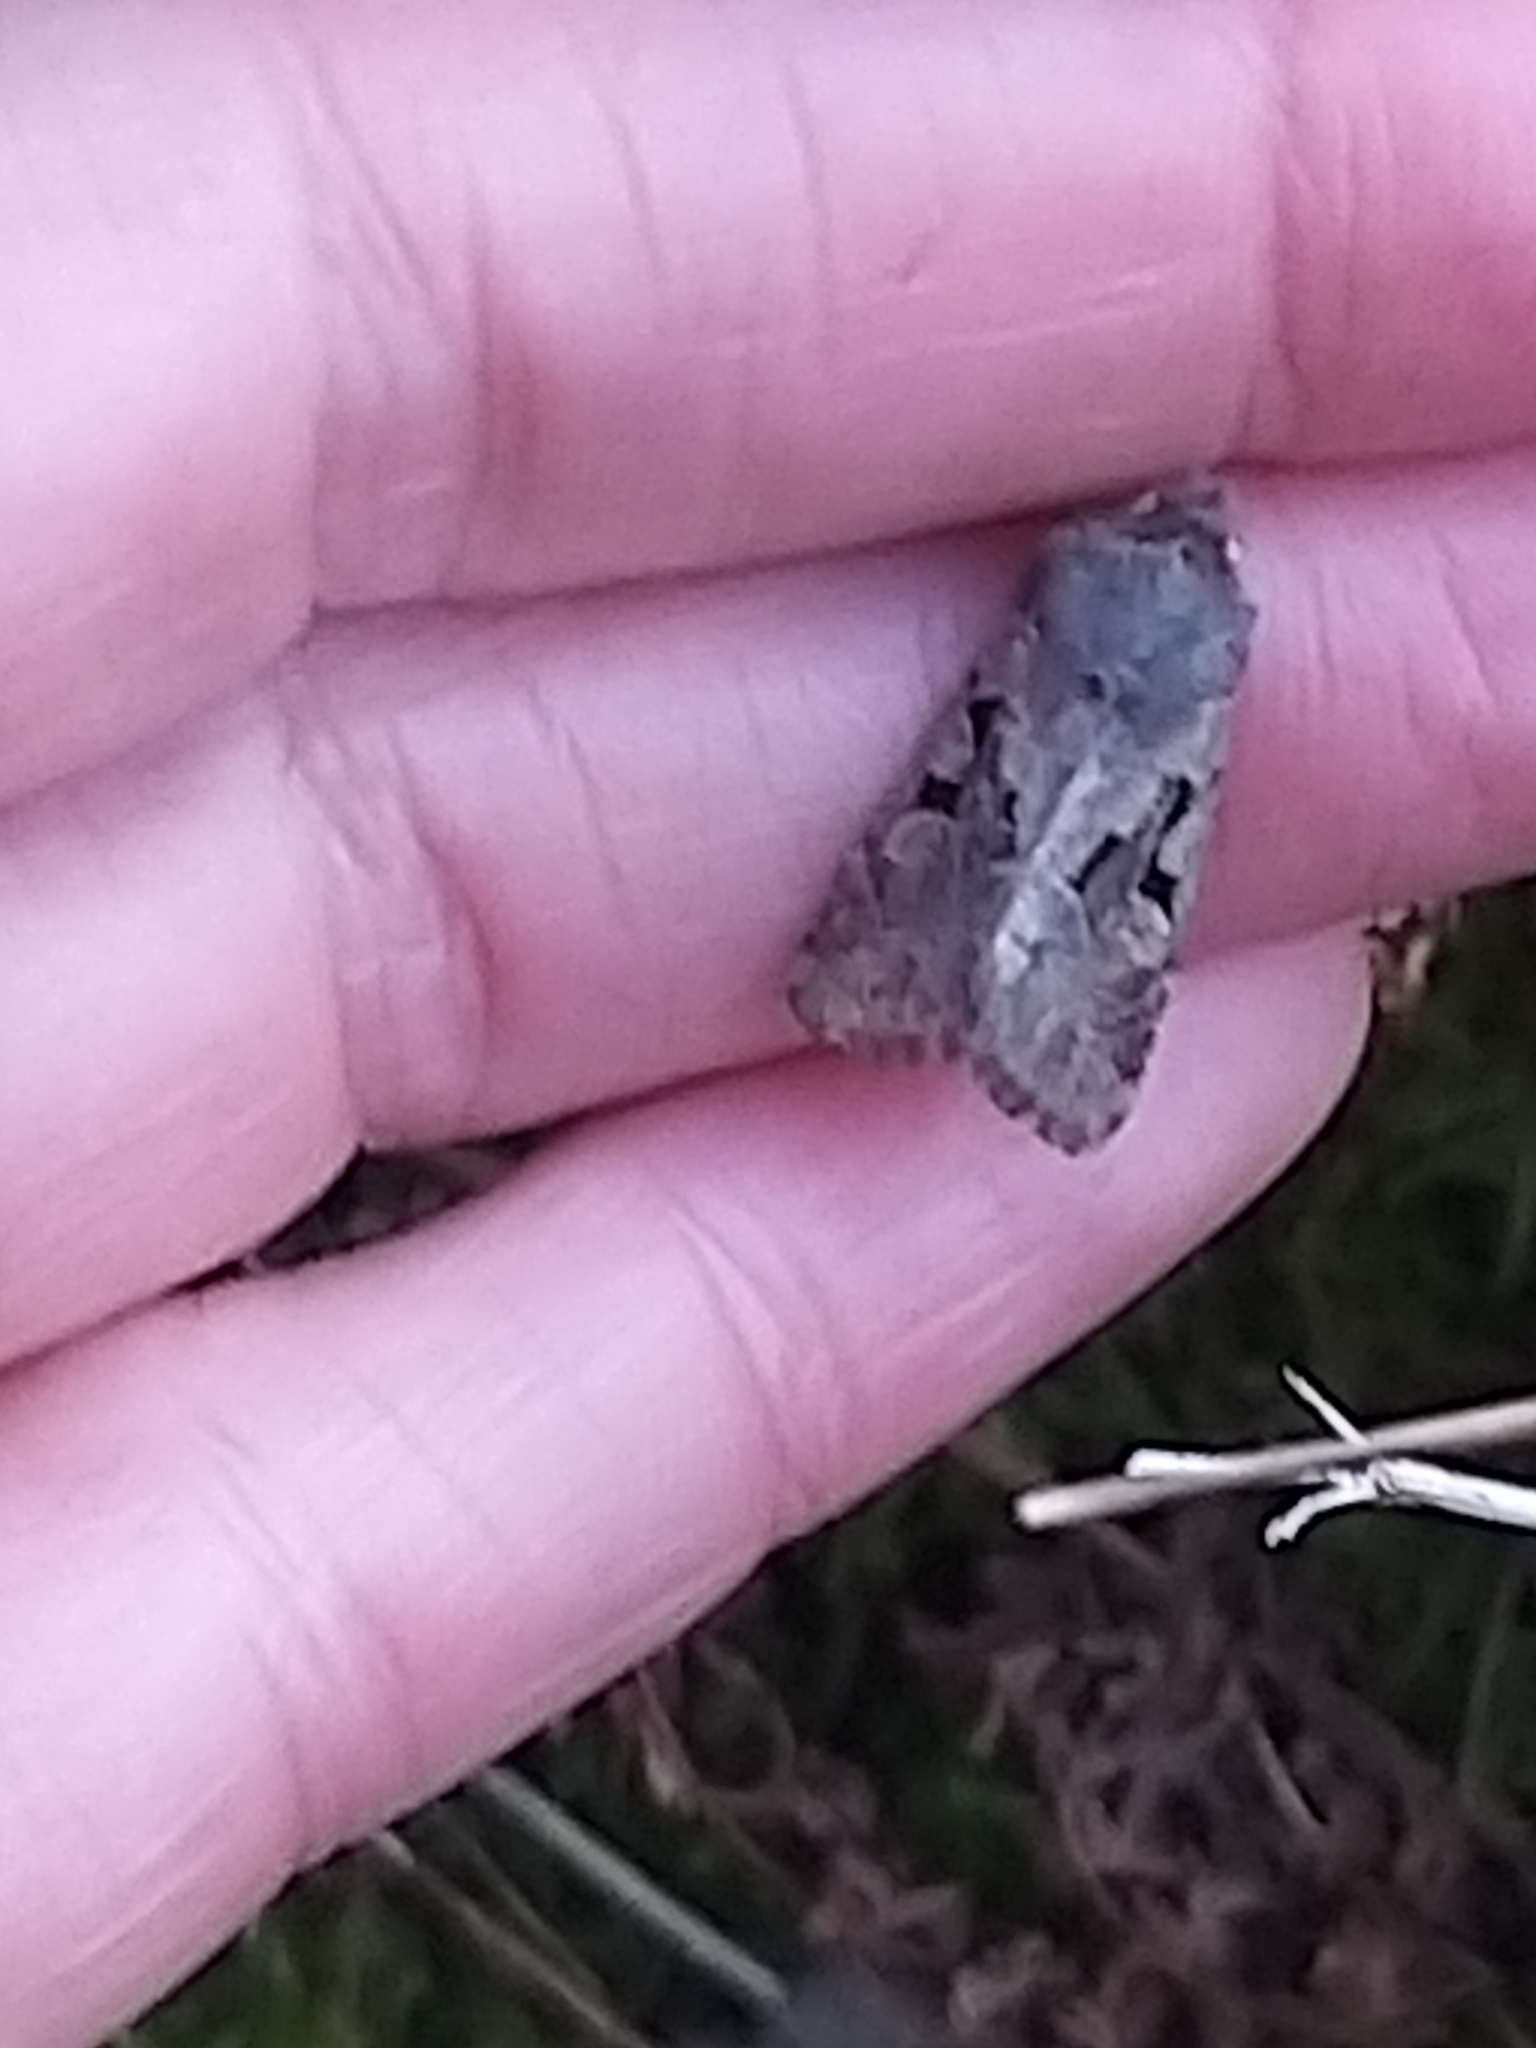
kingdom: Animalia
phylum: Arthropoda
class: Insecta
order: Lepidoptera
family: Noctuidae
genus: Orthosia
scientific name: Orthosia gothica
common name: Hebrew character
